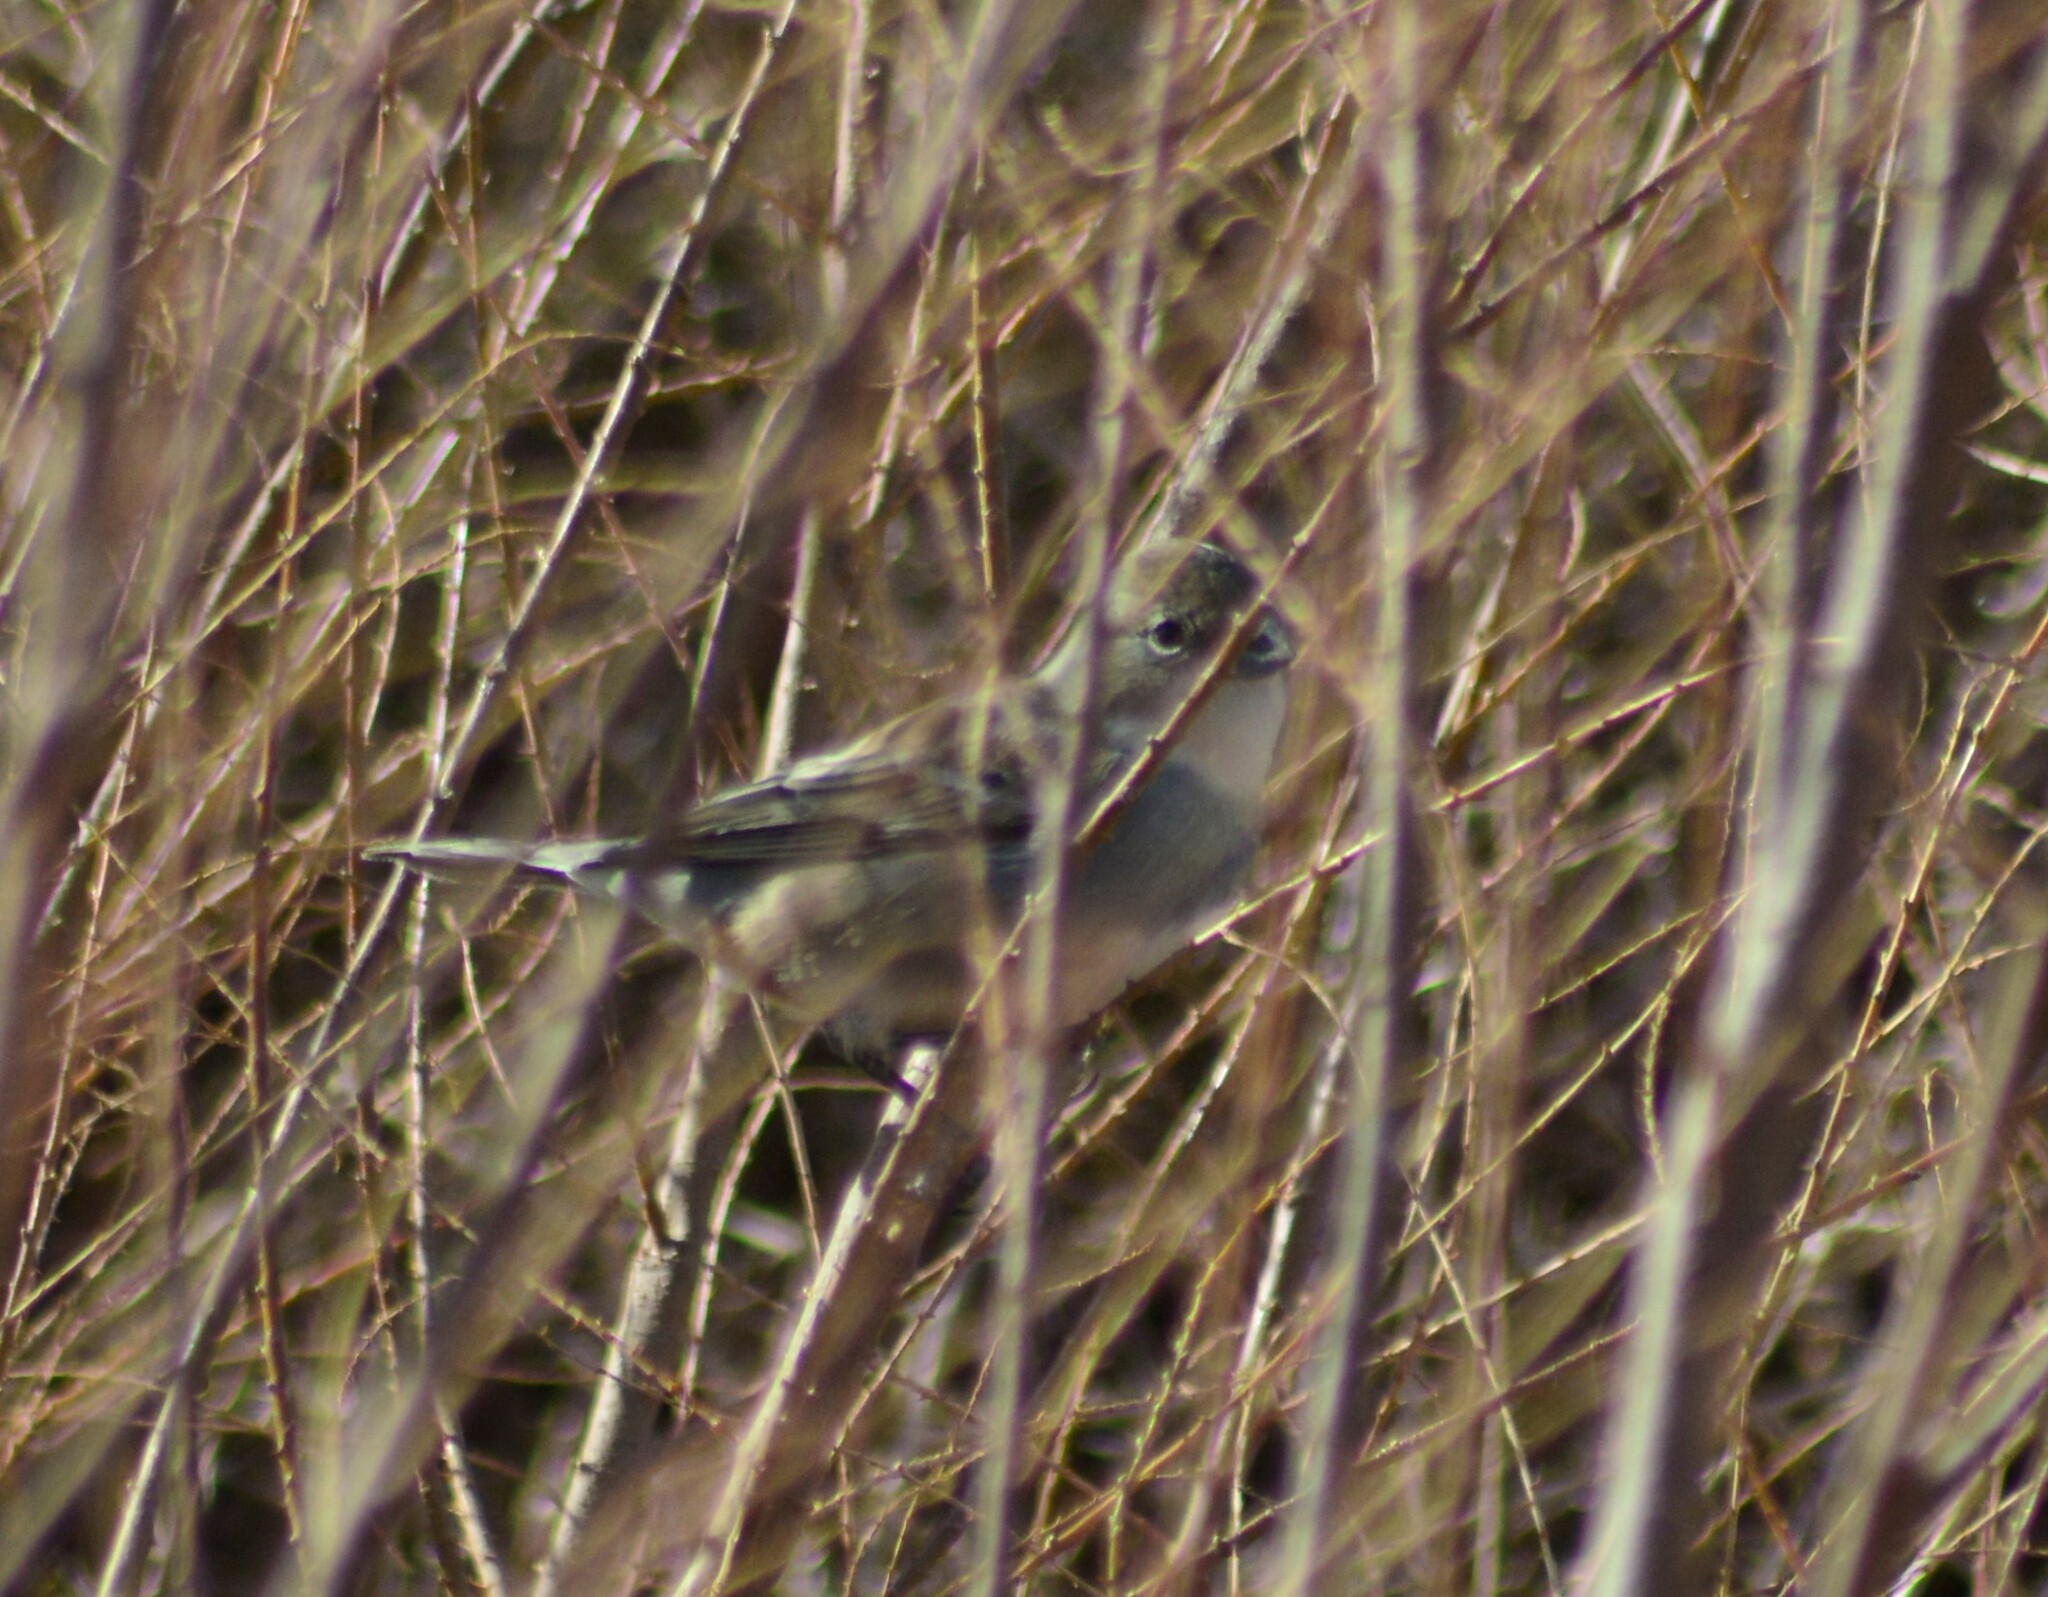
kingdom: Animalia
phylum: Chordata
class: Aves
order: Passeriformes
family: Thraupidae
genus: Diuca
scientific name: Diuca diuca
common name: Common diuca finch
